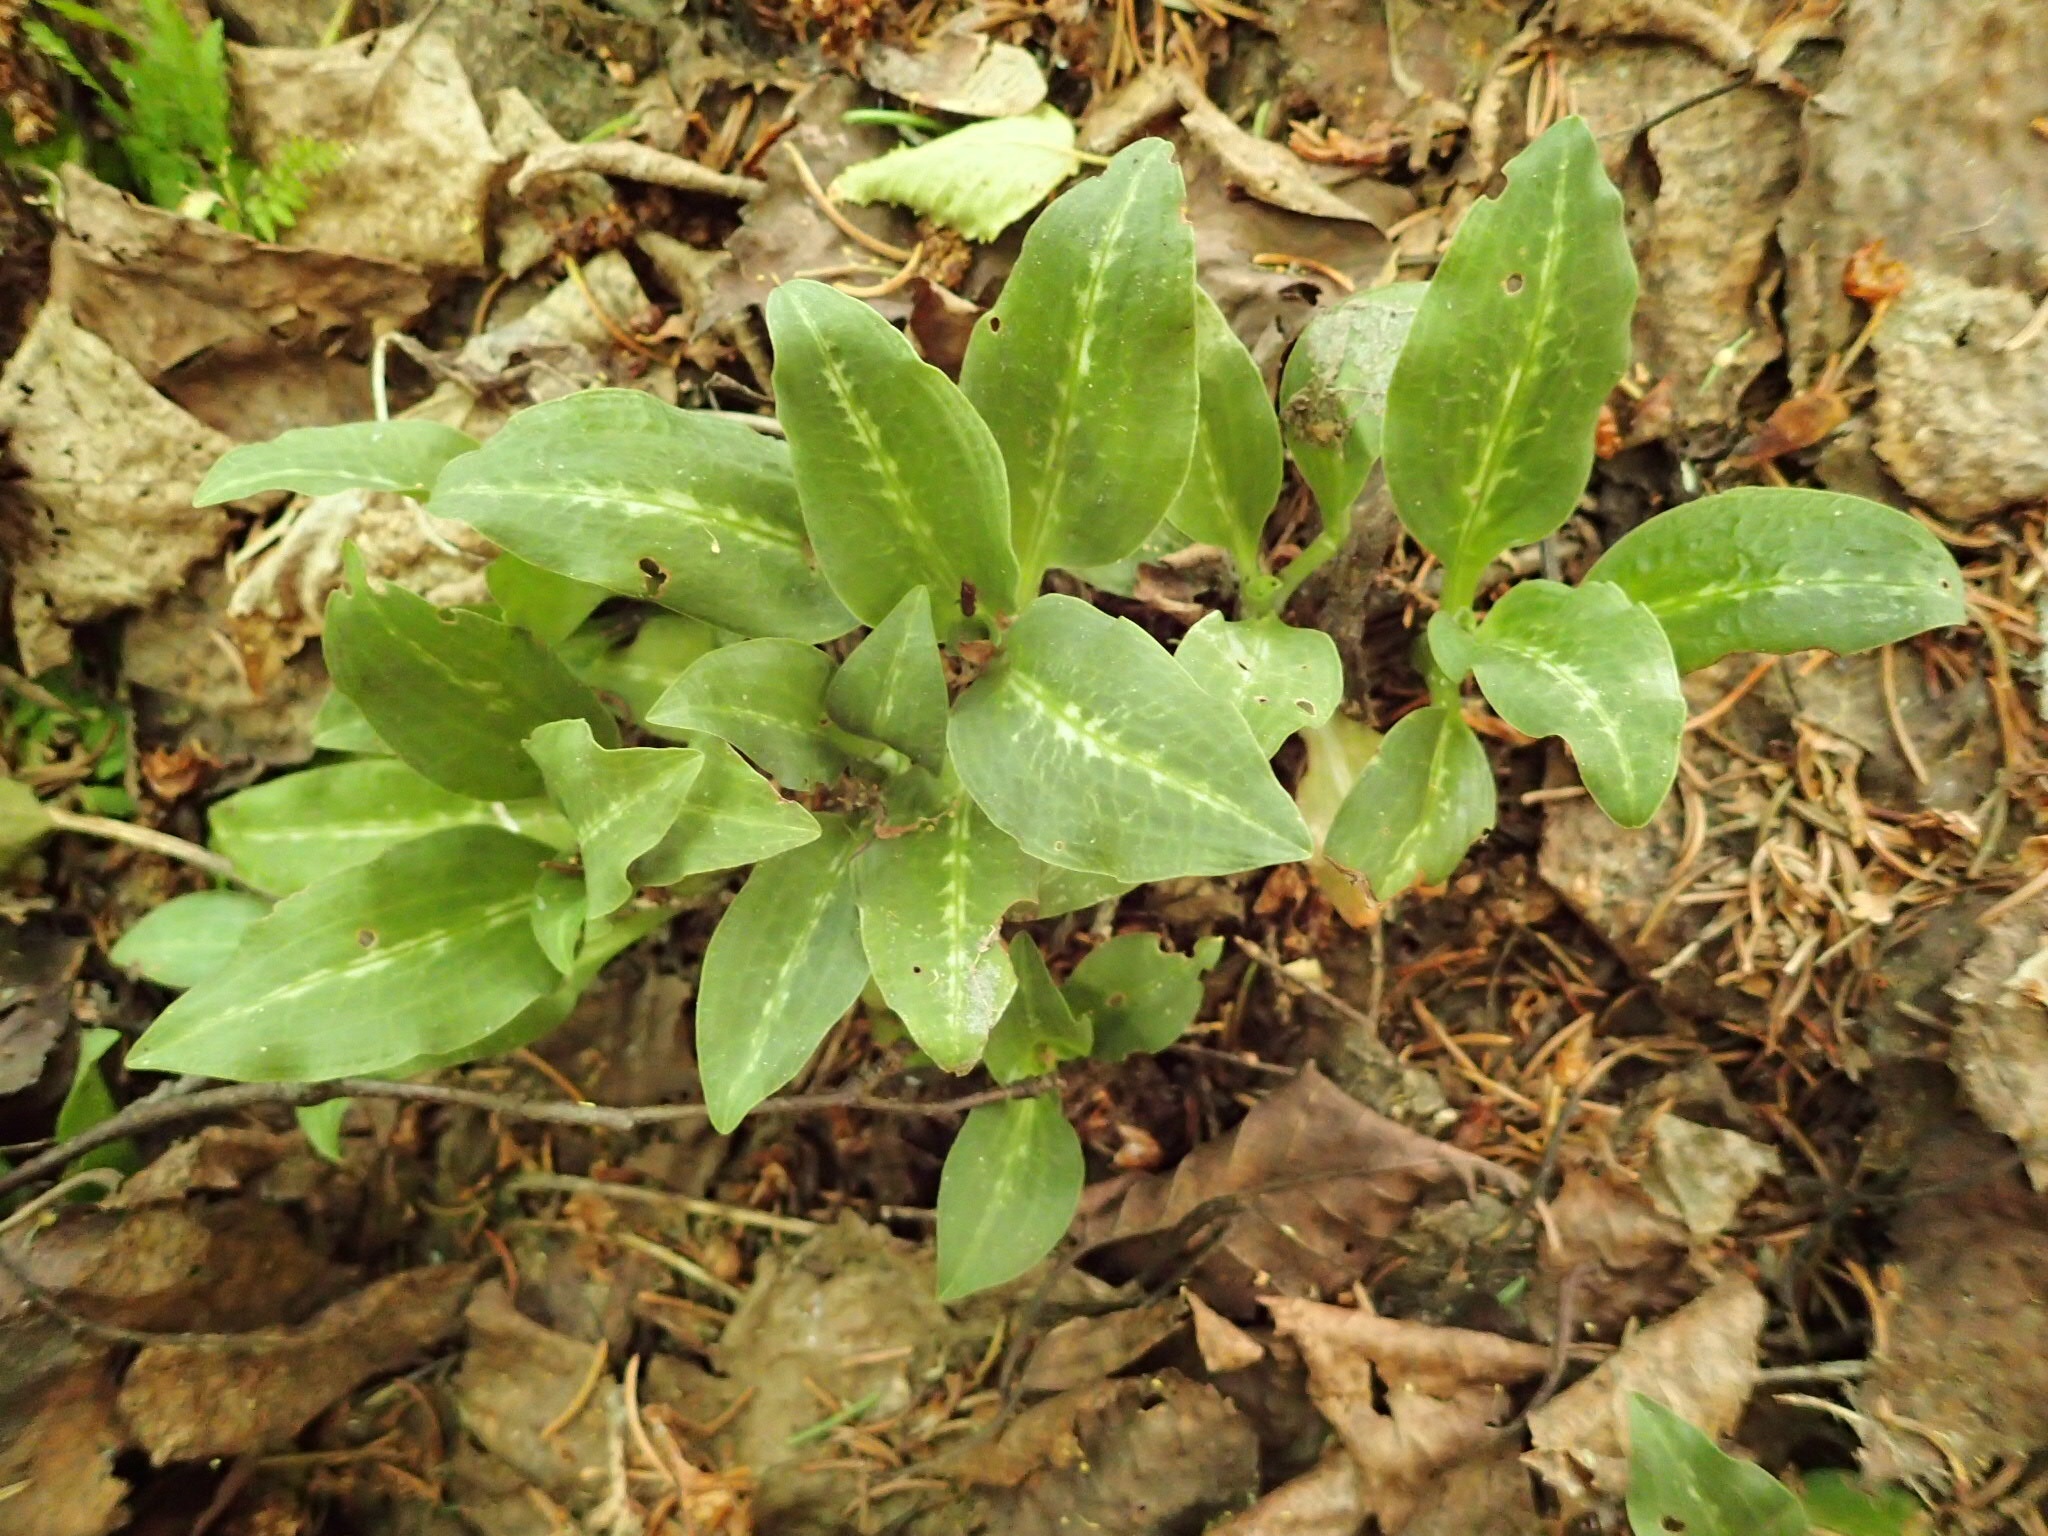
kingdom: Plantae
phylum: Tracheophyta
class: Liliopsida
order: Asparagales
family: Orchidaceae
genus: Goodyera
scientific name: Goodyera oblongifolia
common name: Giant rattlesnake-plantain
